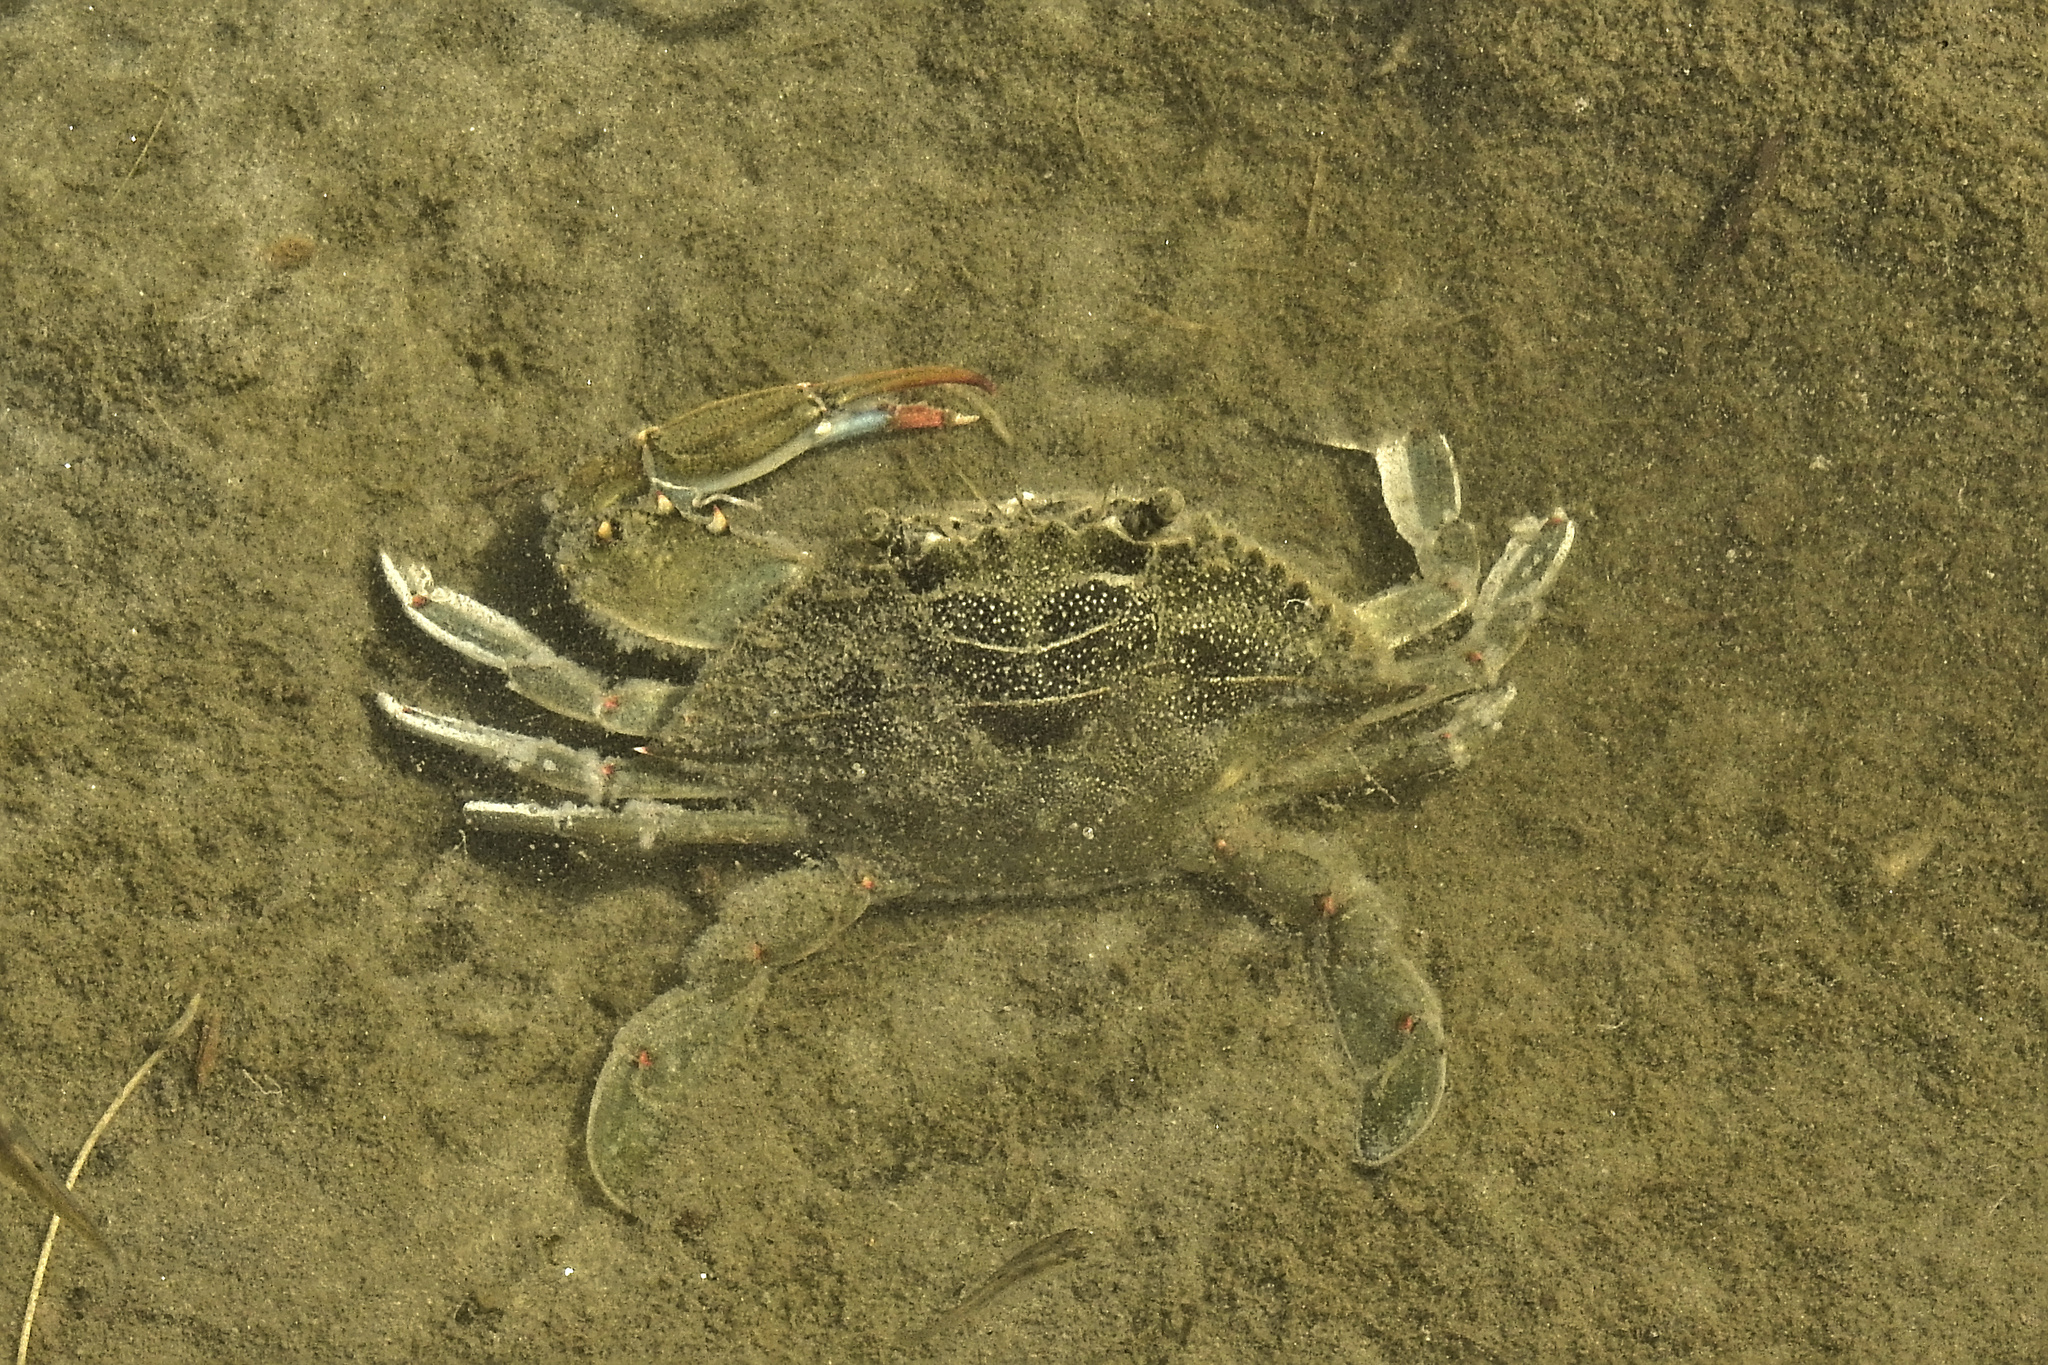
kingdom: Animalia
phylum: Arthropoda
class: Malacostraca
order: Decapoda
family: Portunidae
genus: Callinectes
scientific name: Callinectes sapidus
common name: Blue crab
